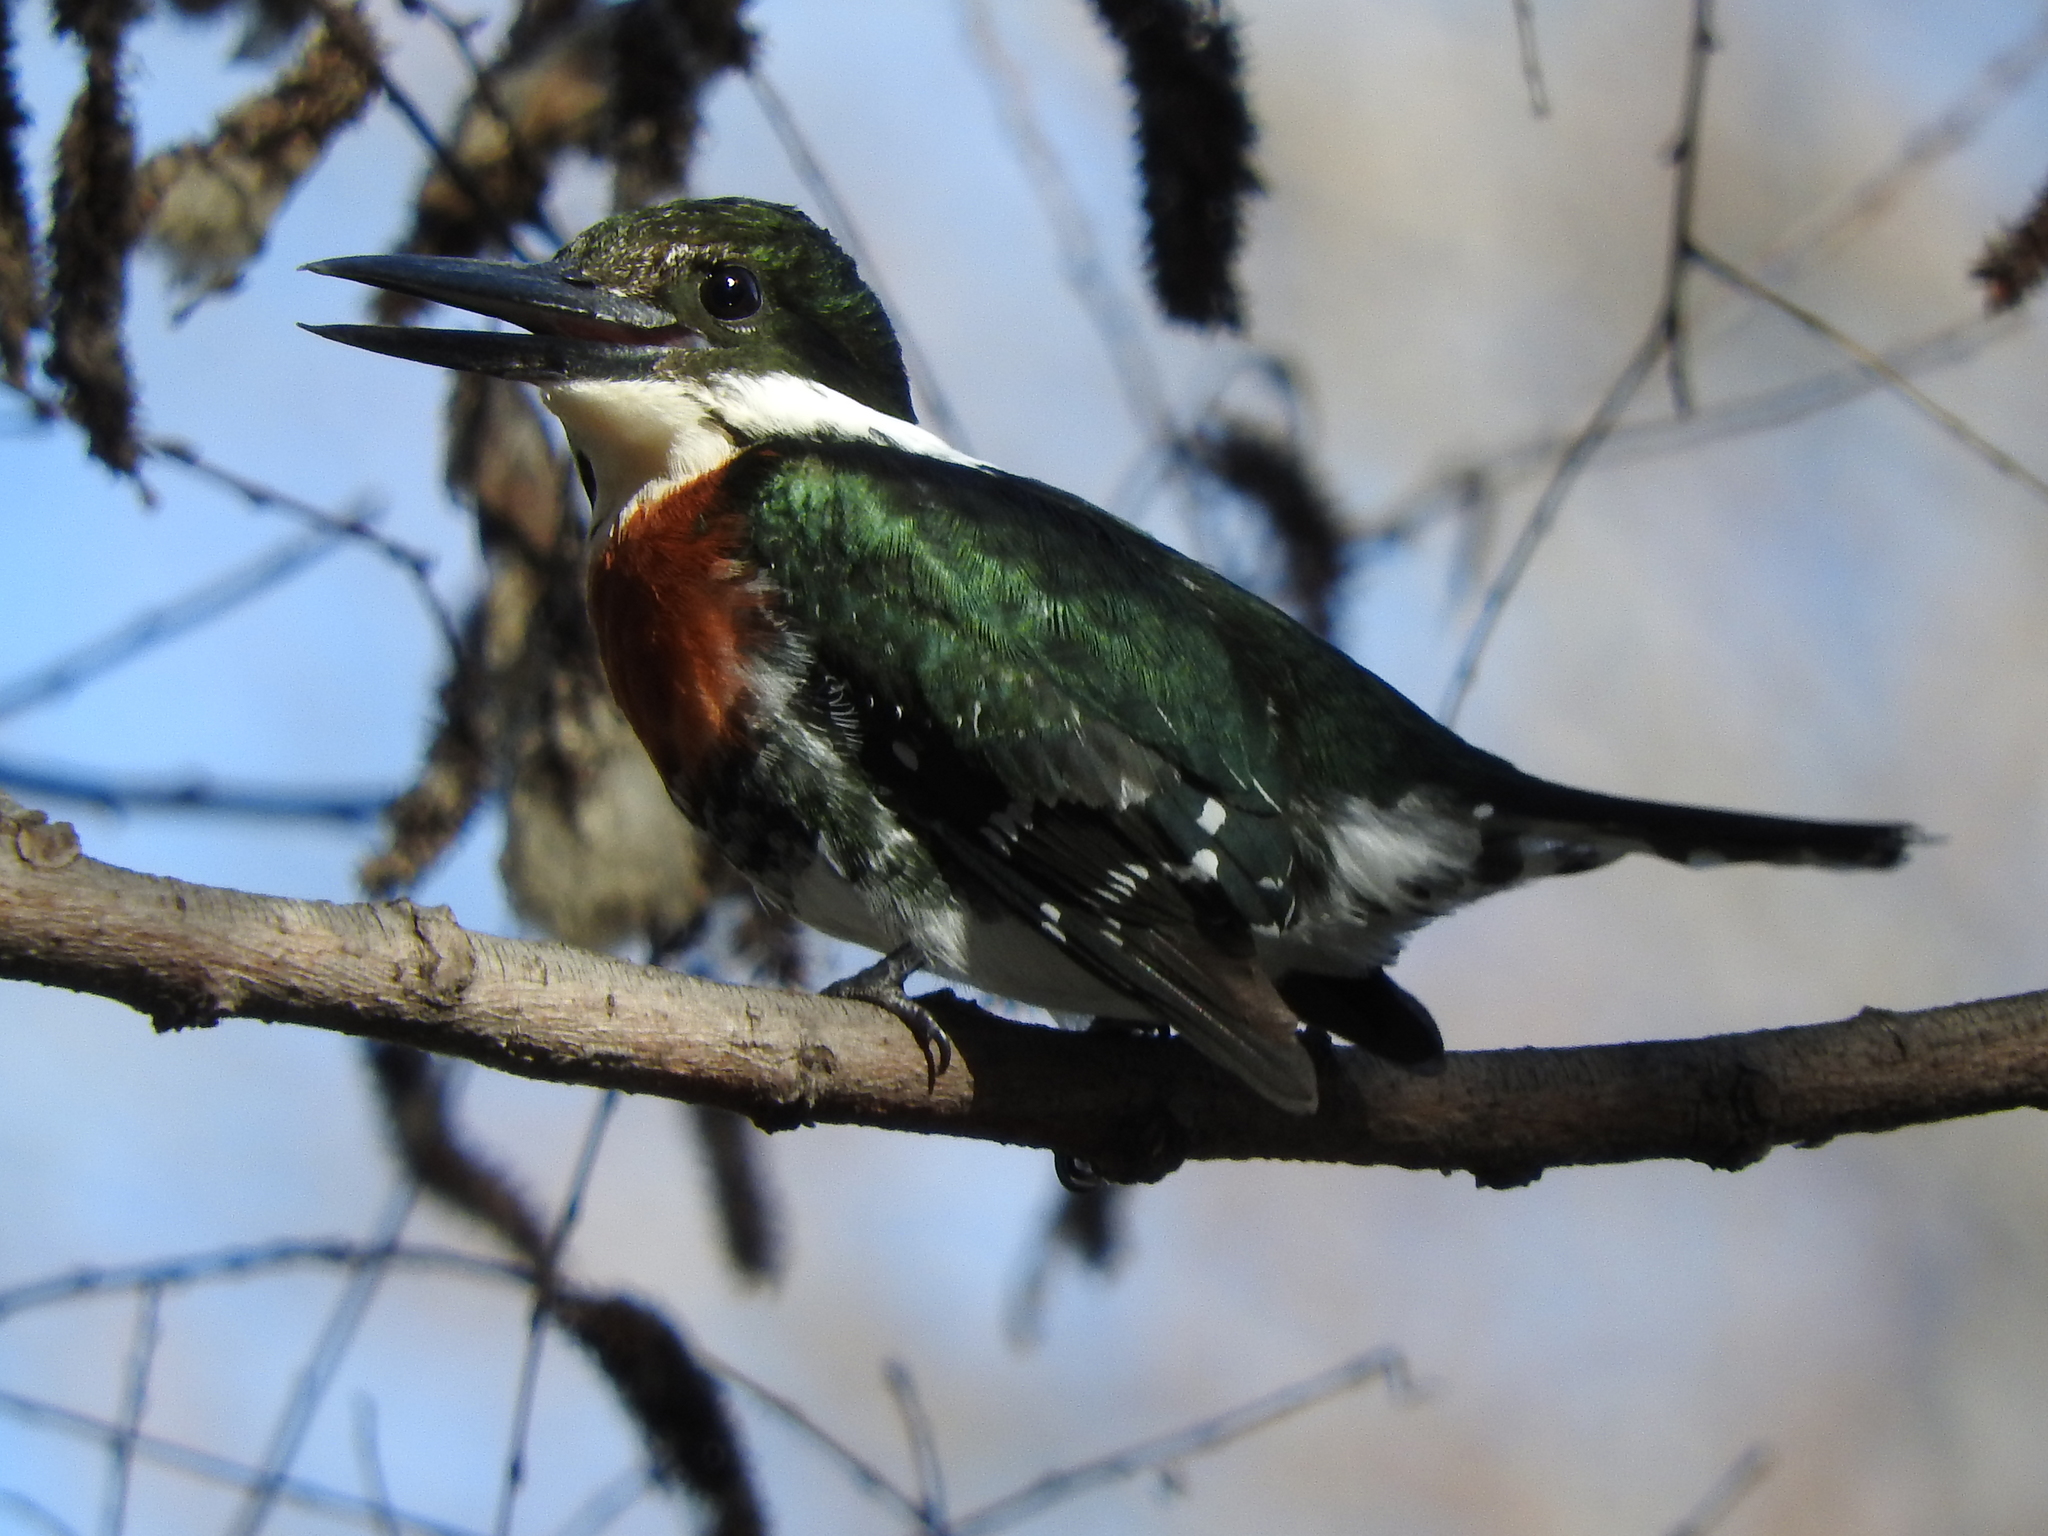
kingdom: Animalia
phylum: Chordata
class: Aves
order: Coraciiformes
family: Alcedinidae
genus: Chloroceryle
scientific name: Chloroceryle americana
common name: Green kingfisher
